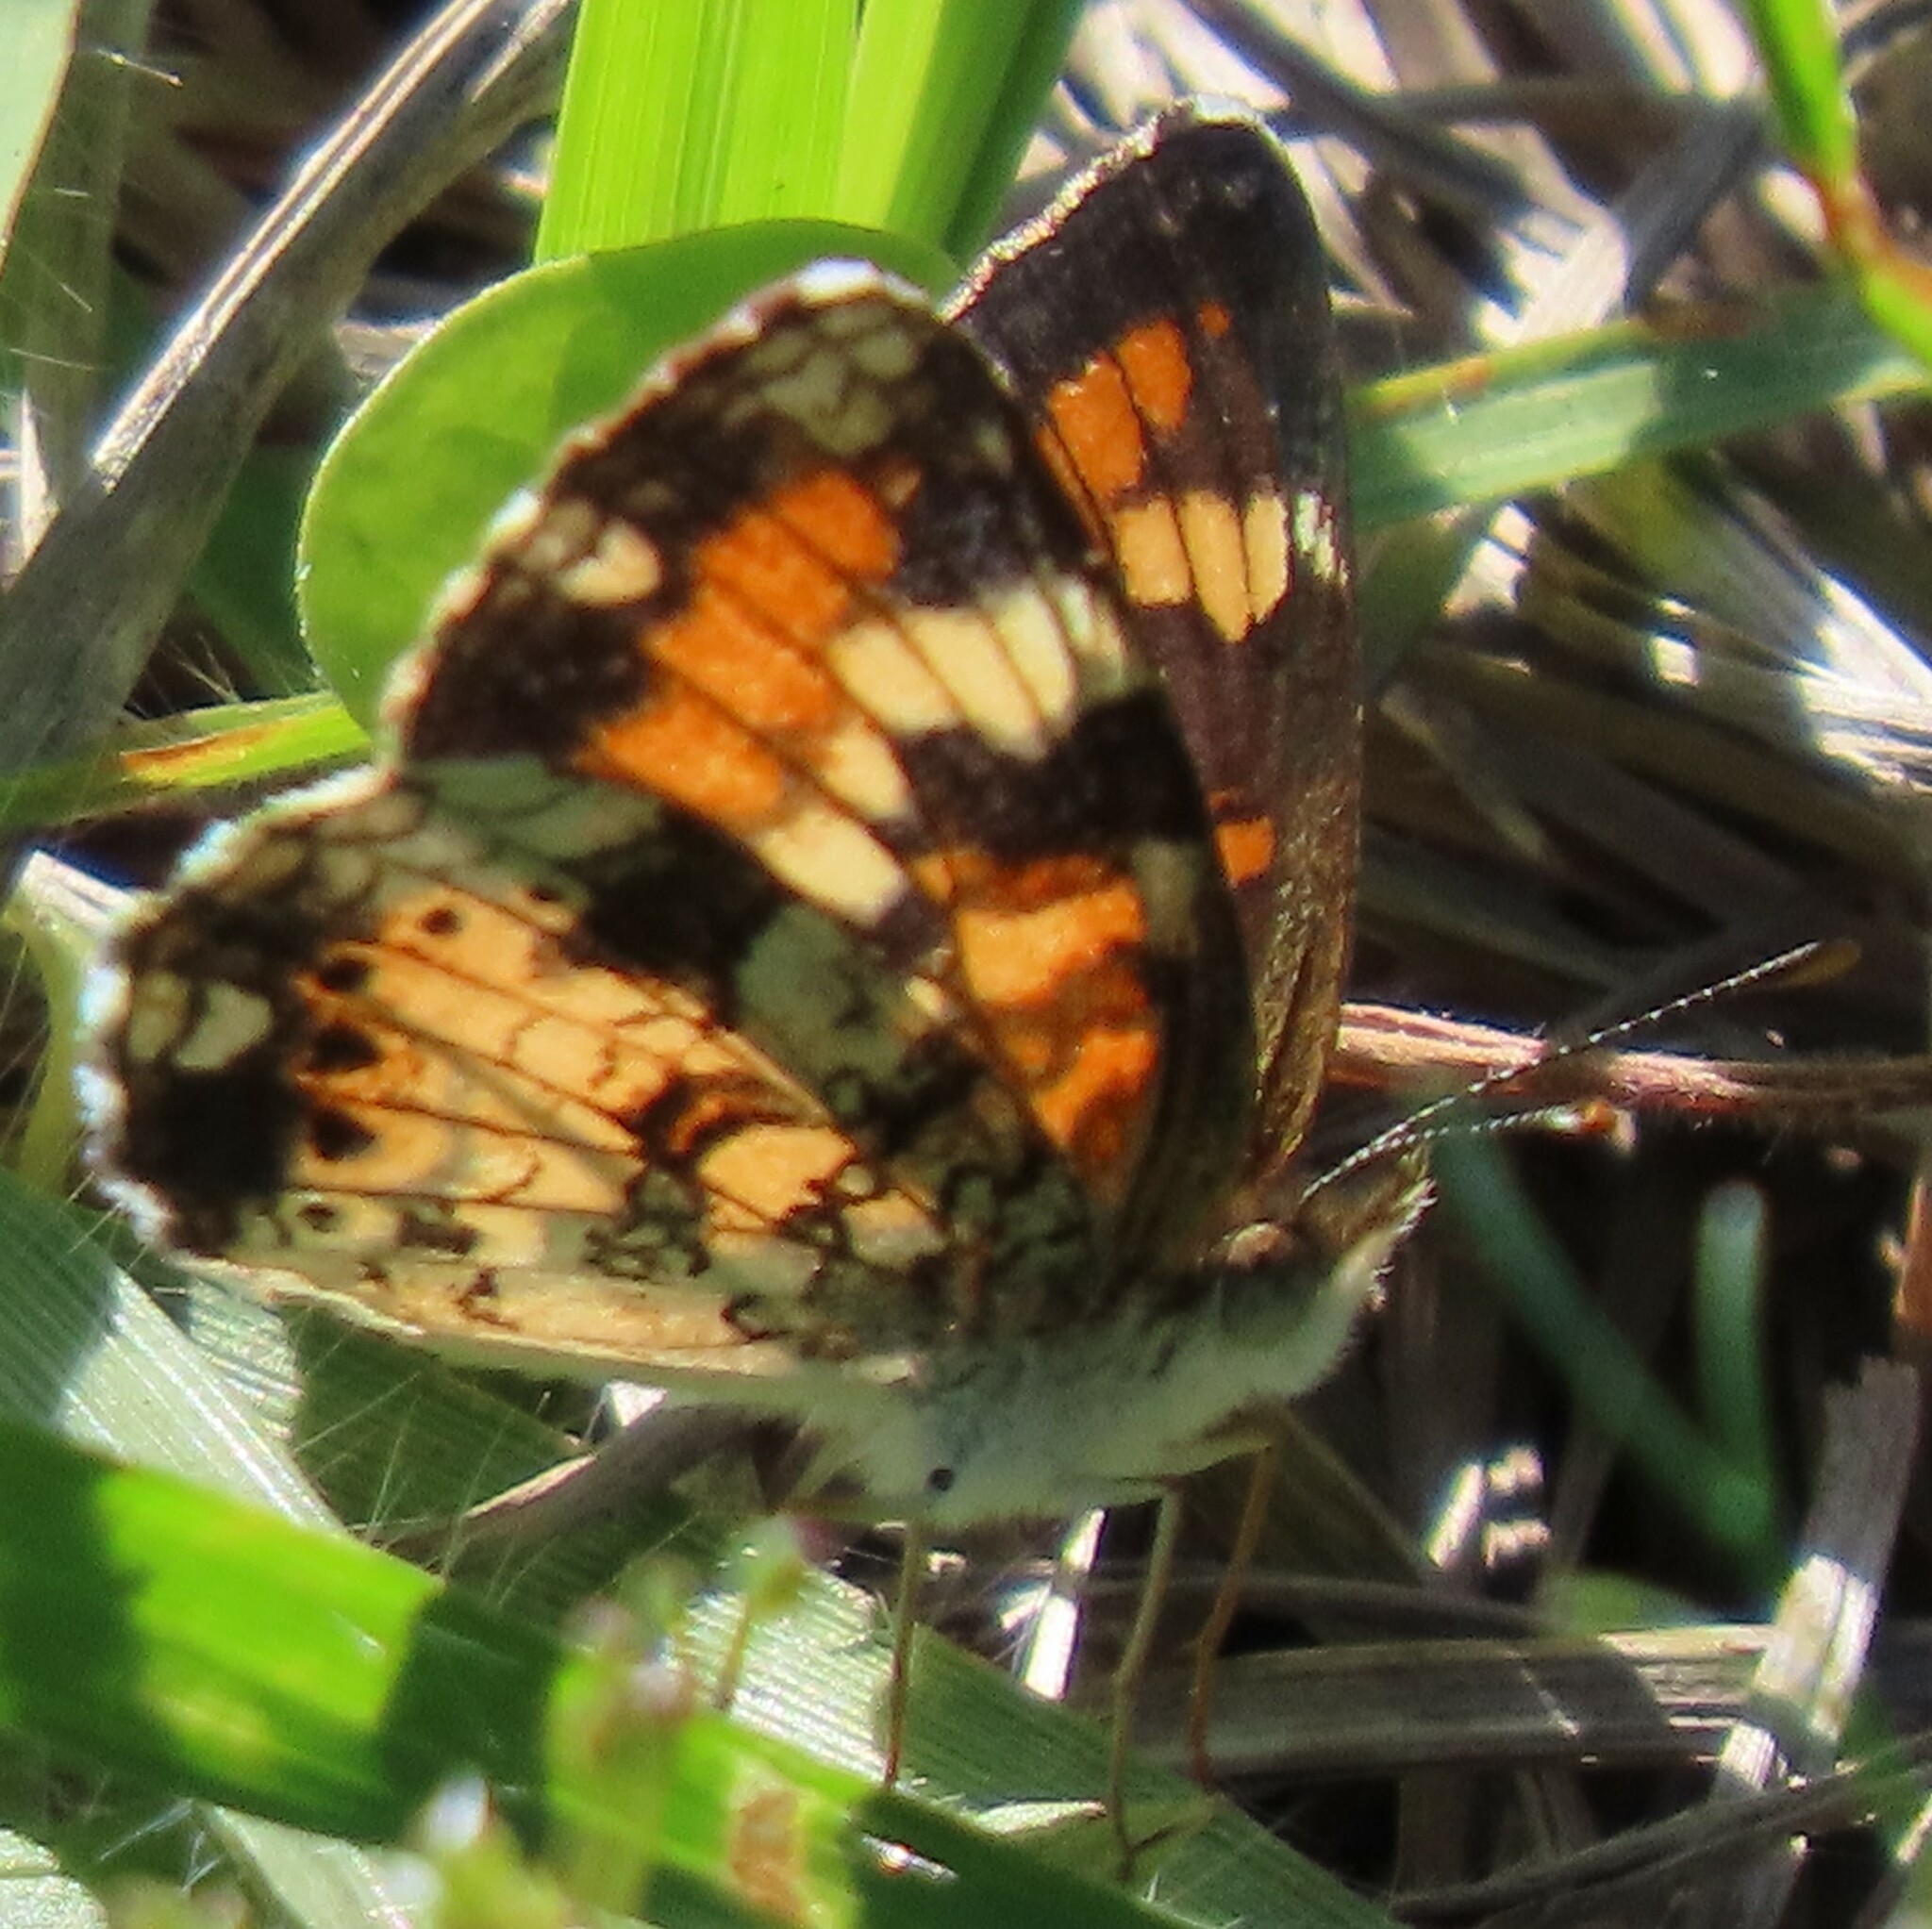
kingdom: Animalia
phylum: Arthropoda
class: Insecta
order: Lepidoptera
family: Nymphalidae
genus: Phyciodes
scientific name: Phyciodes phaon
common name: Phaon crescent
